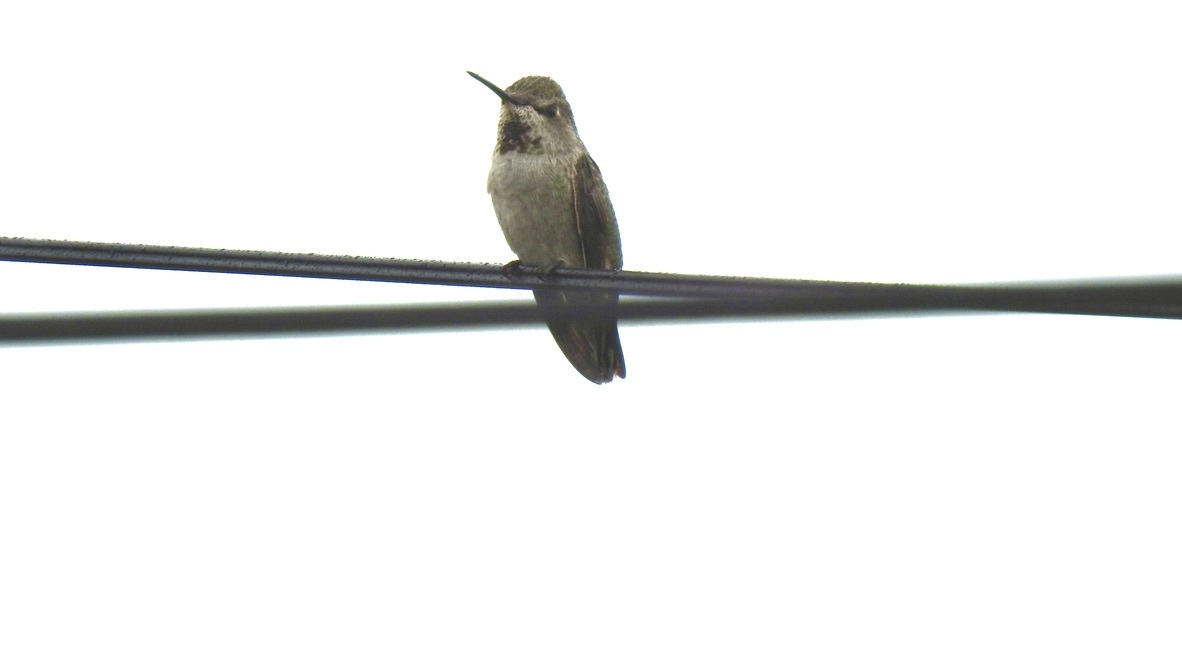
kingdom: Animalia
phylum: Chordata
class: Aves
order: Apodiformes
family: Trochilidae
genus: Calypte
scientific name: Calypte anna
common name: Anna's hummingbird
